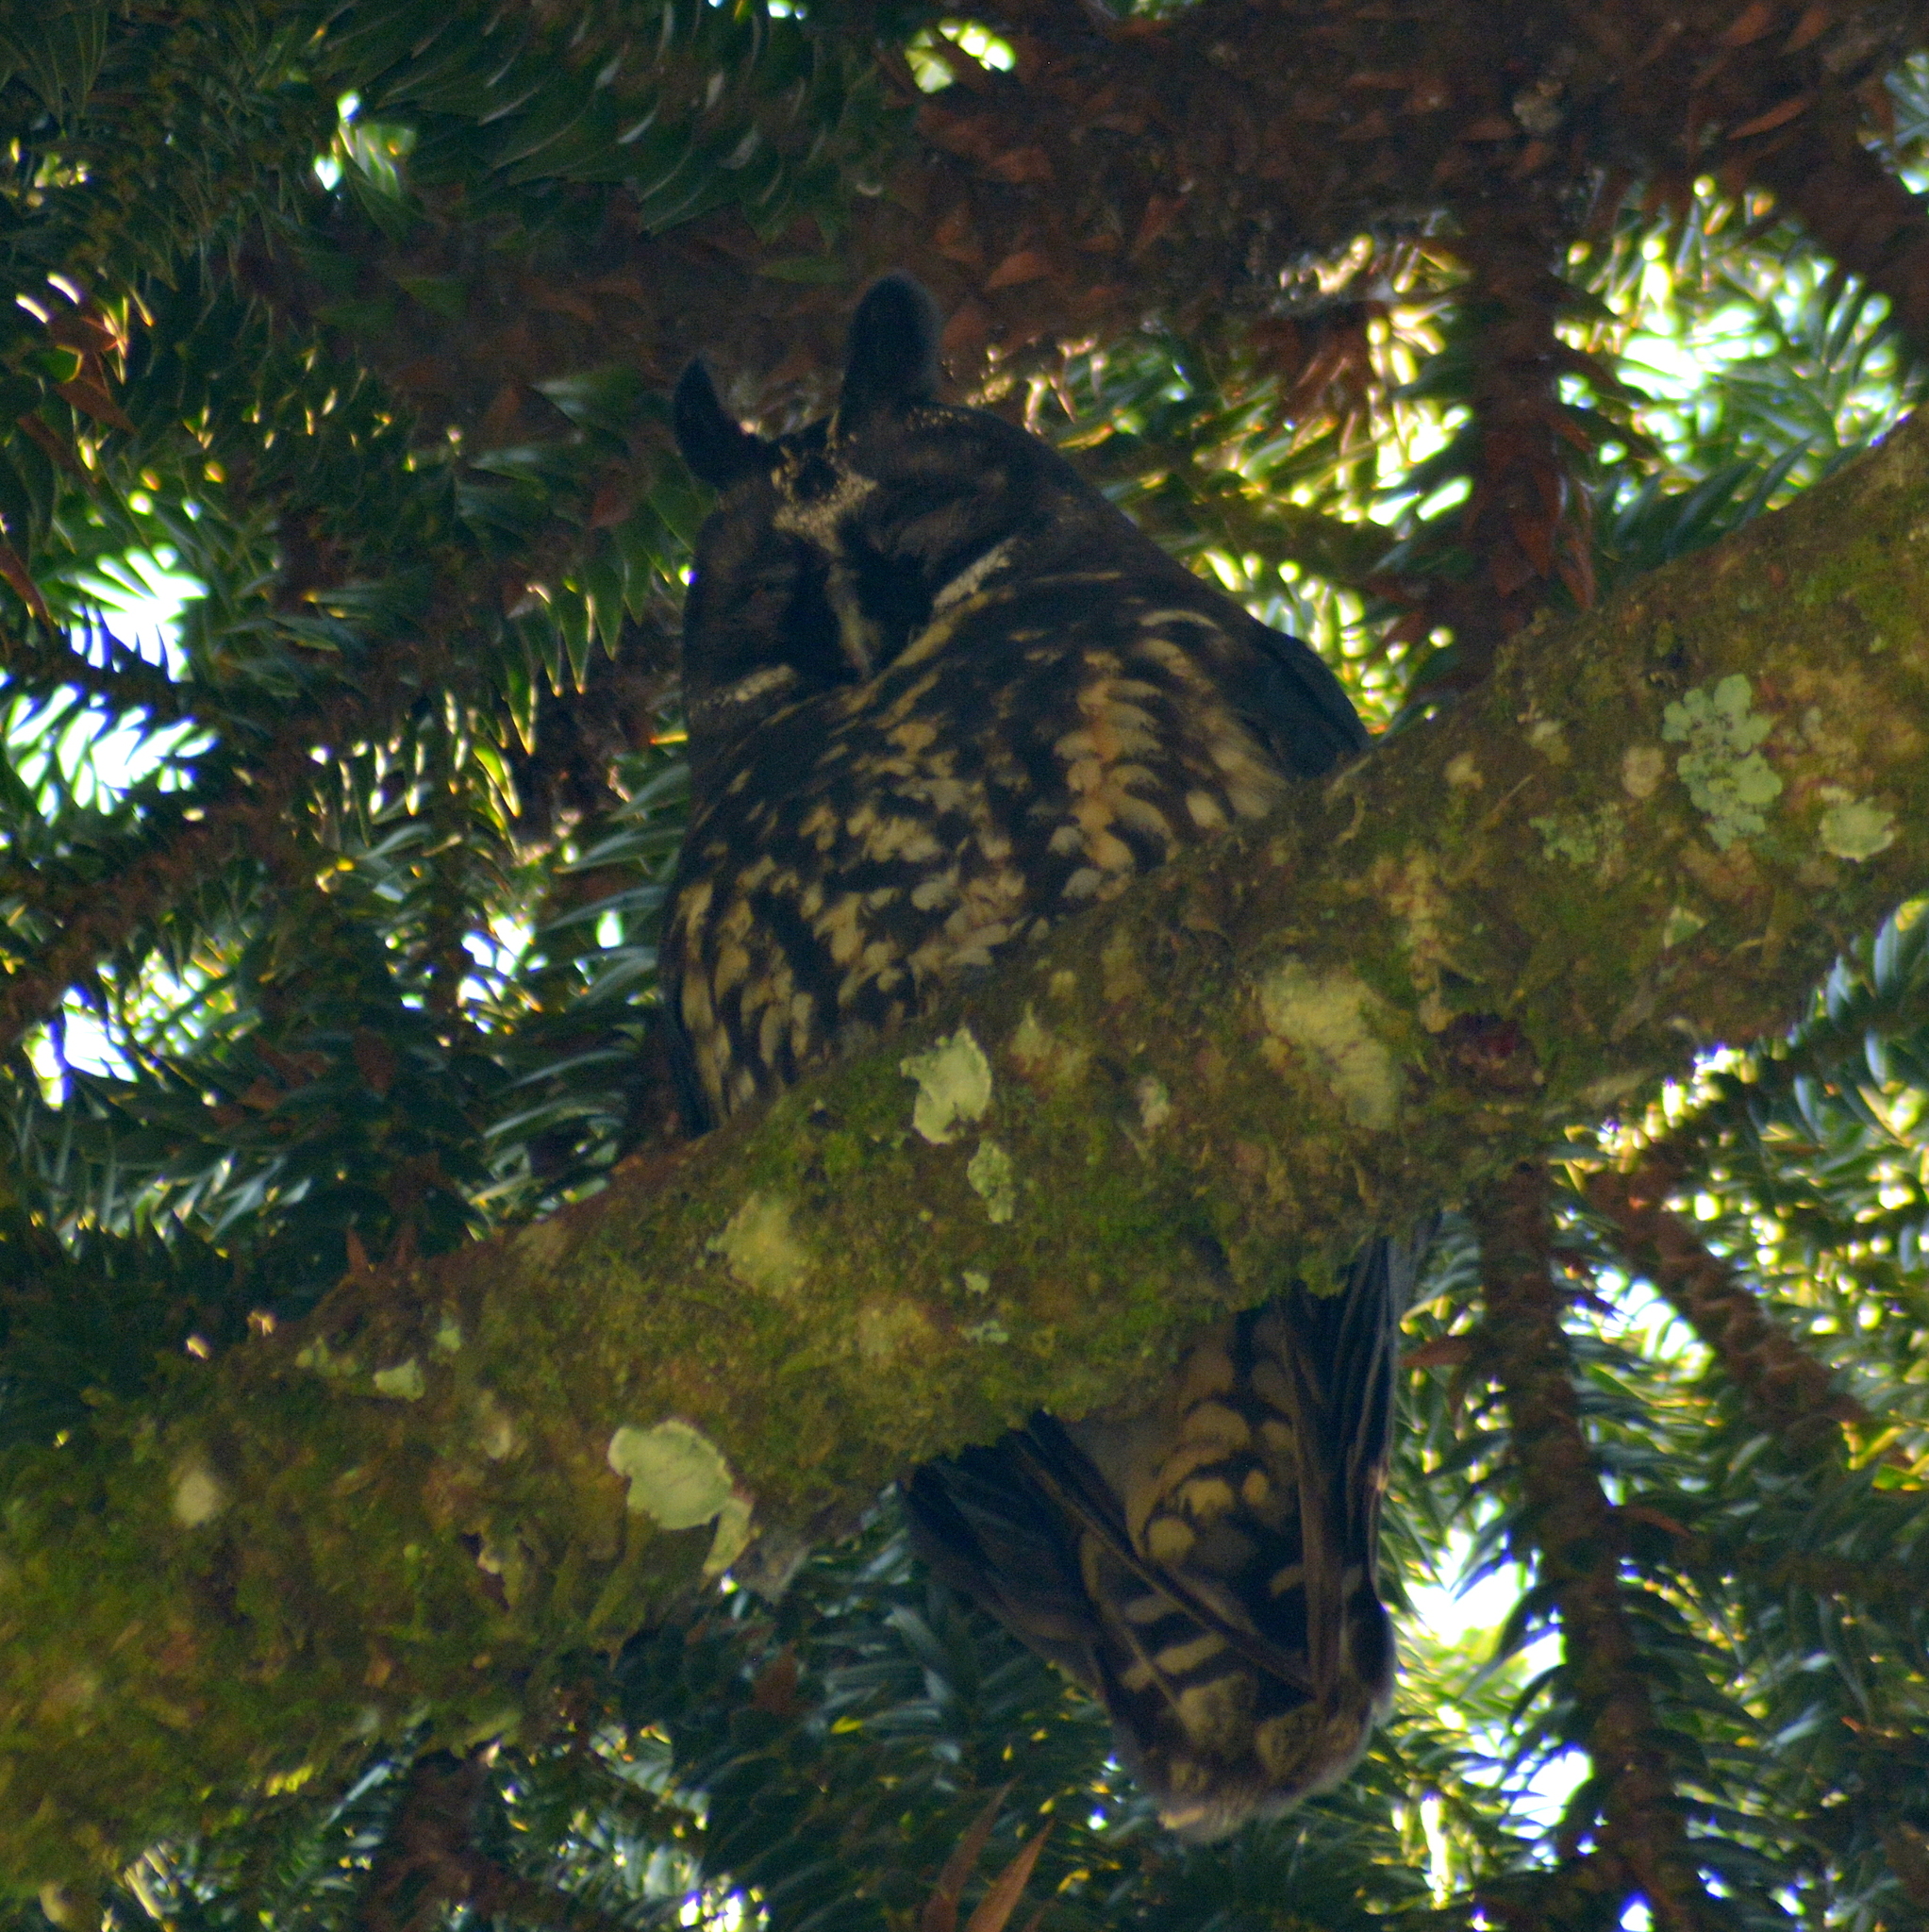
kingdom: Animalia
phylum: Chordata
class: Aves
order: Strigiformes
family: Strigidae
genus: Asio
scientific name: Asio stygius
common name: Stygian owl
